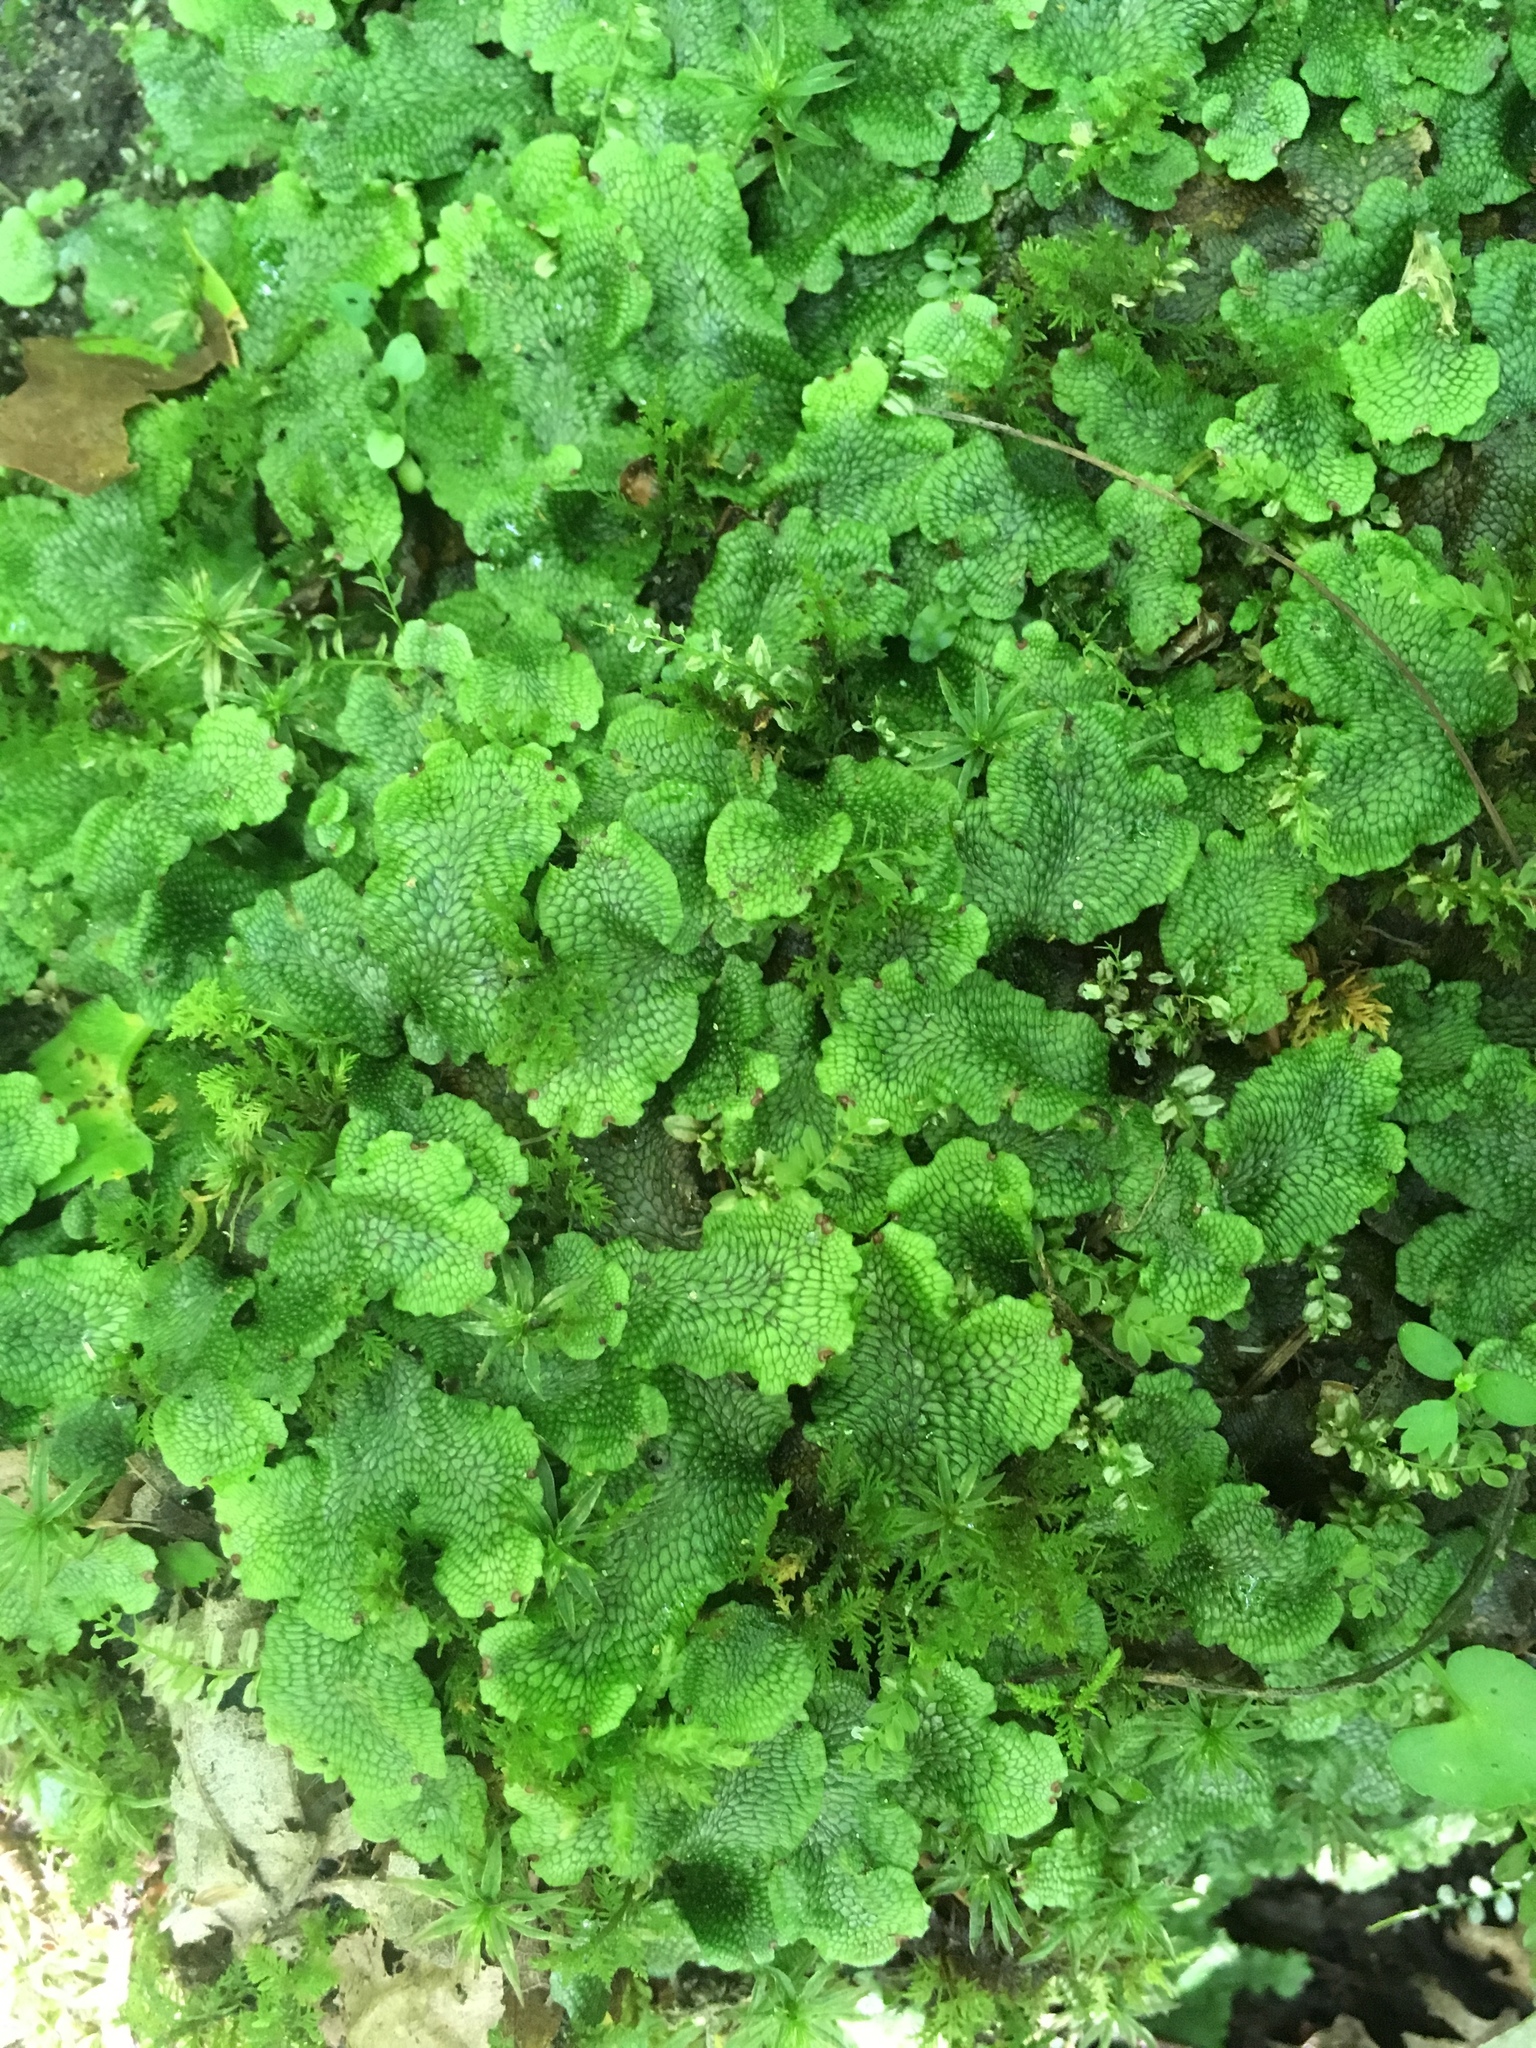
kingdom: Plantae
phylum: Marchantiophyta
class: Marchantiopsida
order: Marchantiales
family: Conocephalaceae
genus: Conocephalum
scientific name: Conocephalum salebrosum
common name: Cat-tongue liverwort
